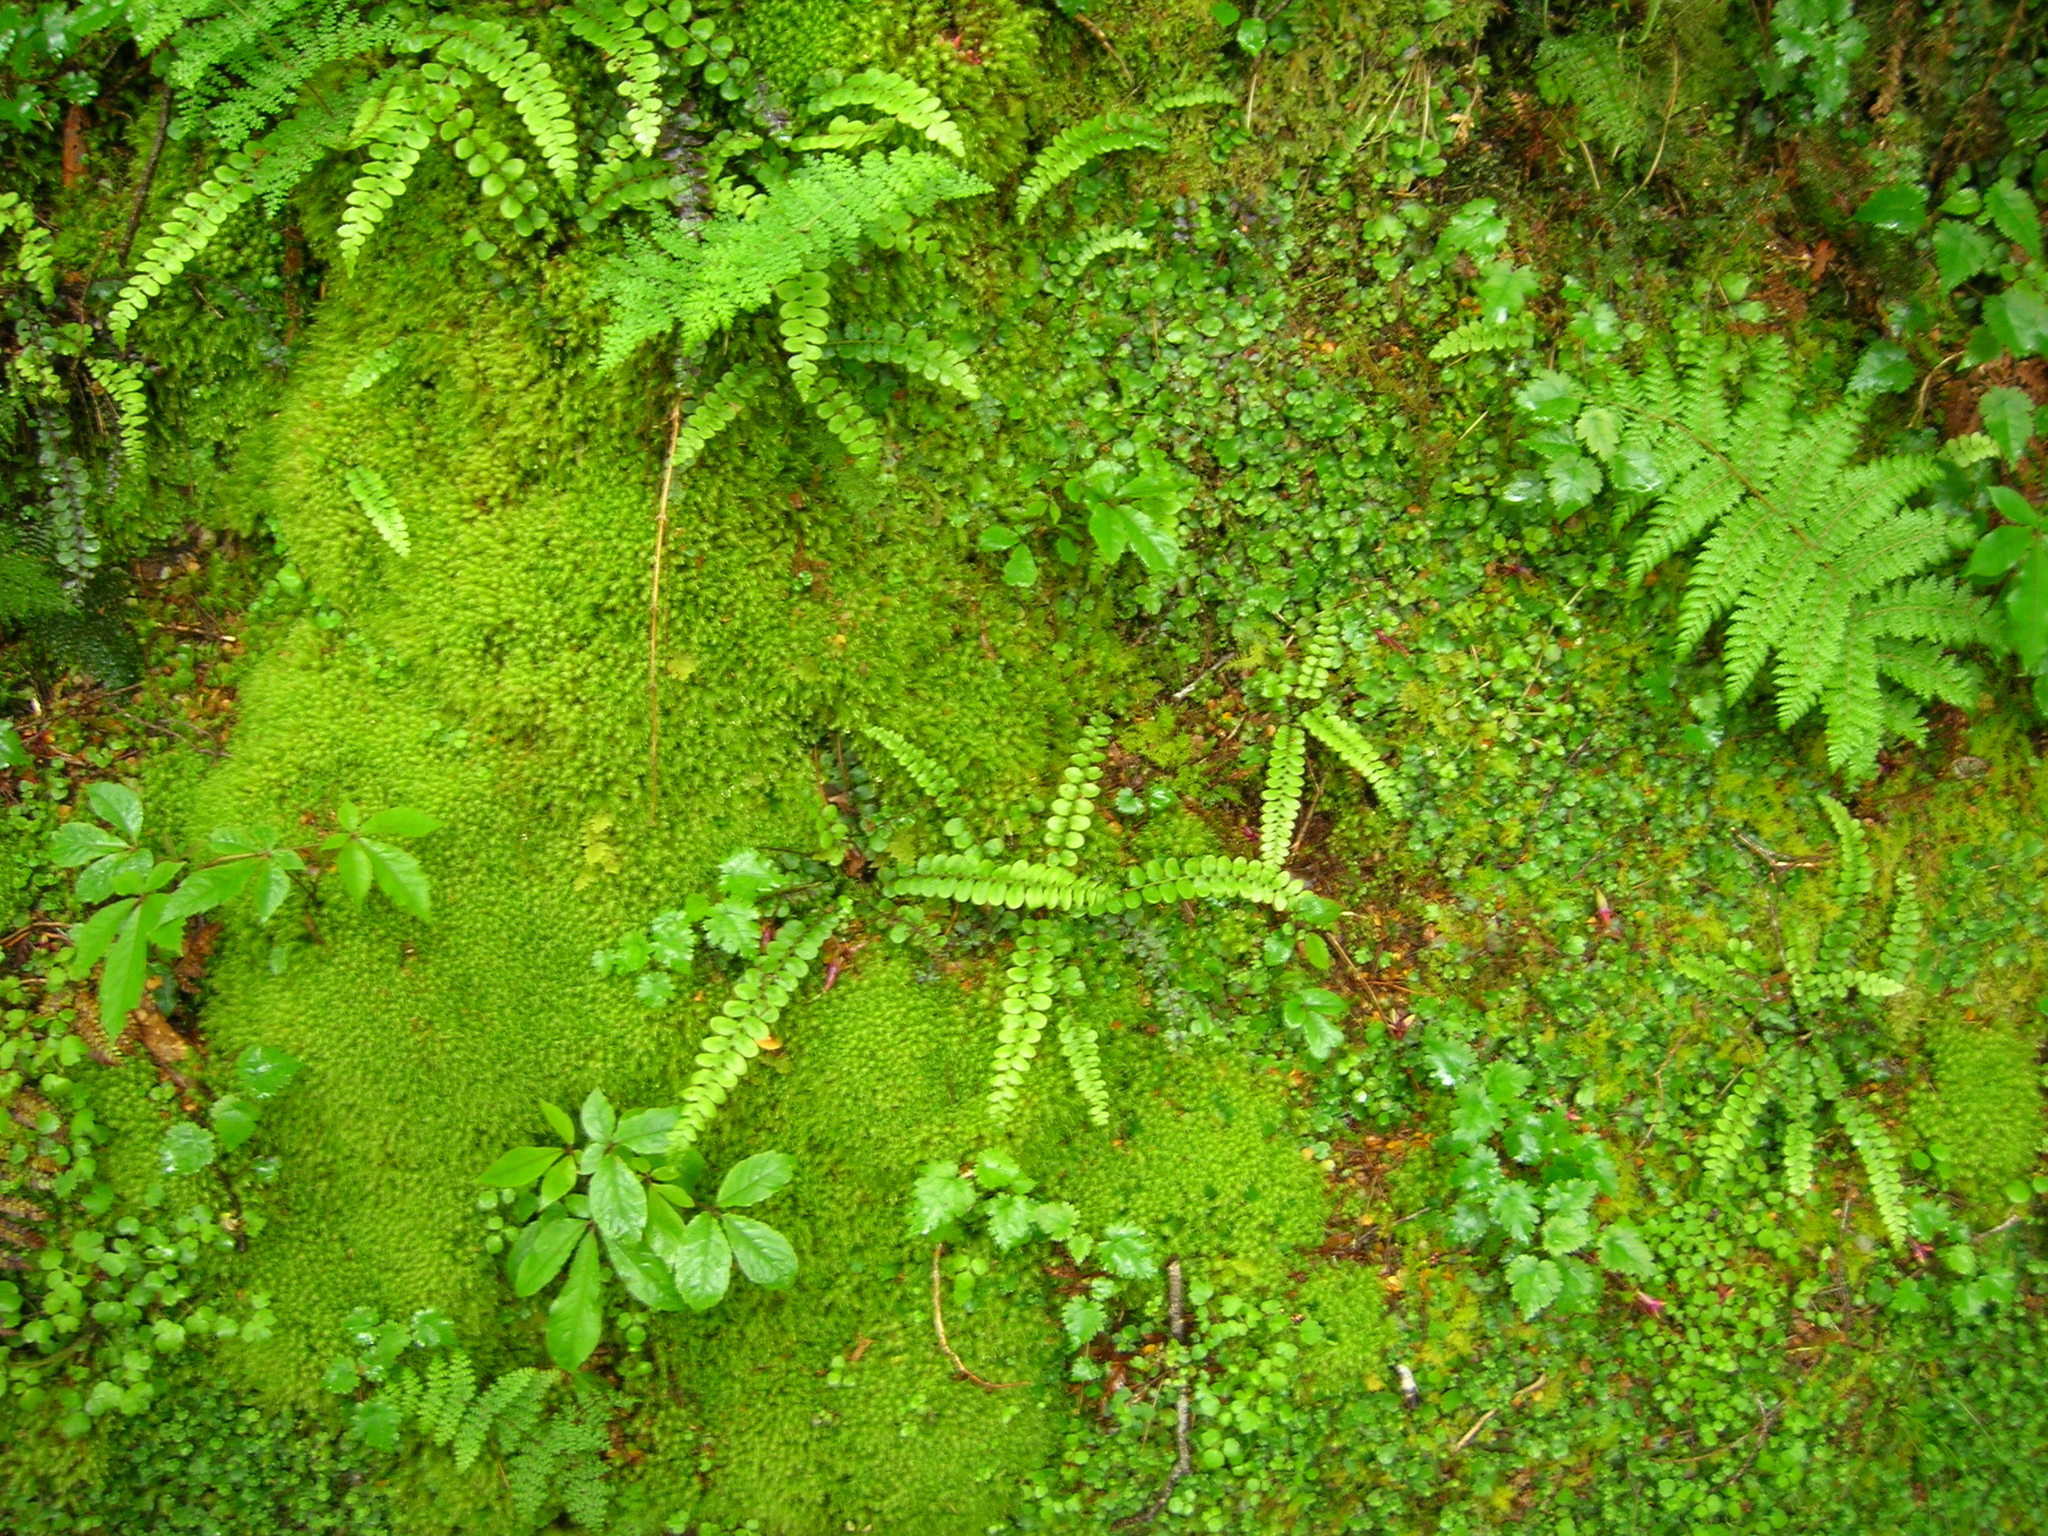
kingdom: Plantae
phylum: Tracheophyta
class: Polypodiopsida
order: Polypodiales
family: Blechnaceae
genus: Cranfillia
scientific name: Cranfillia fluviatilis
